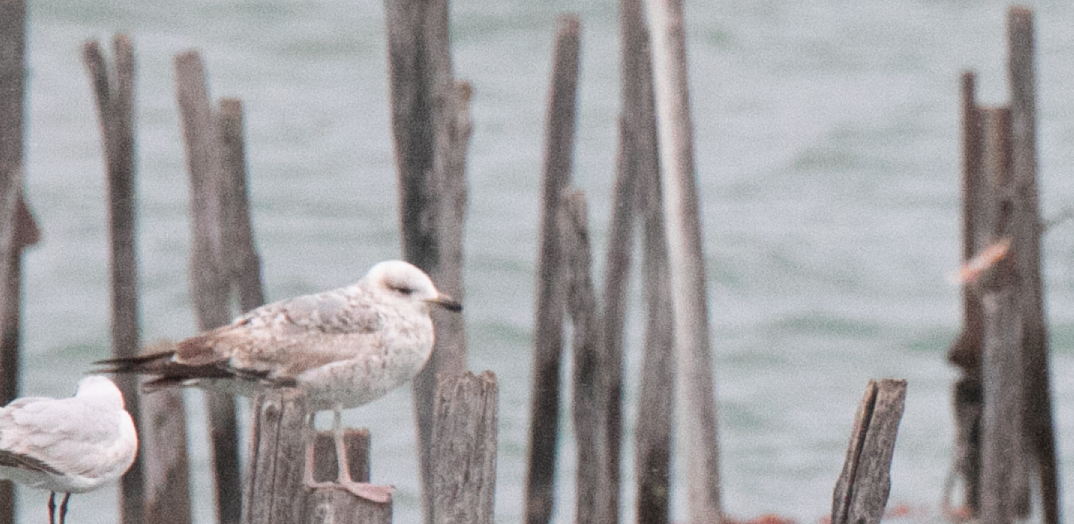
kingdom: Animalia
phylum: Chordata
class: Aves
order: Charadriiformes
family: Laridae
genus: Larus
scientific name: Larus michahellis
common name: Yellow-legged gull
